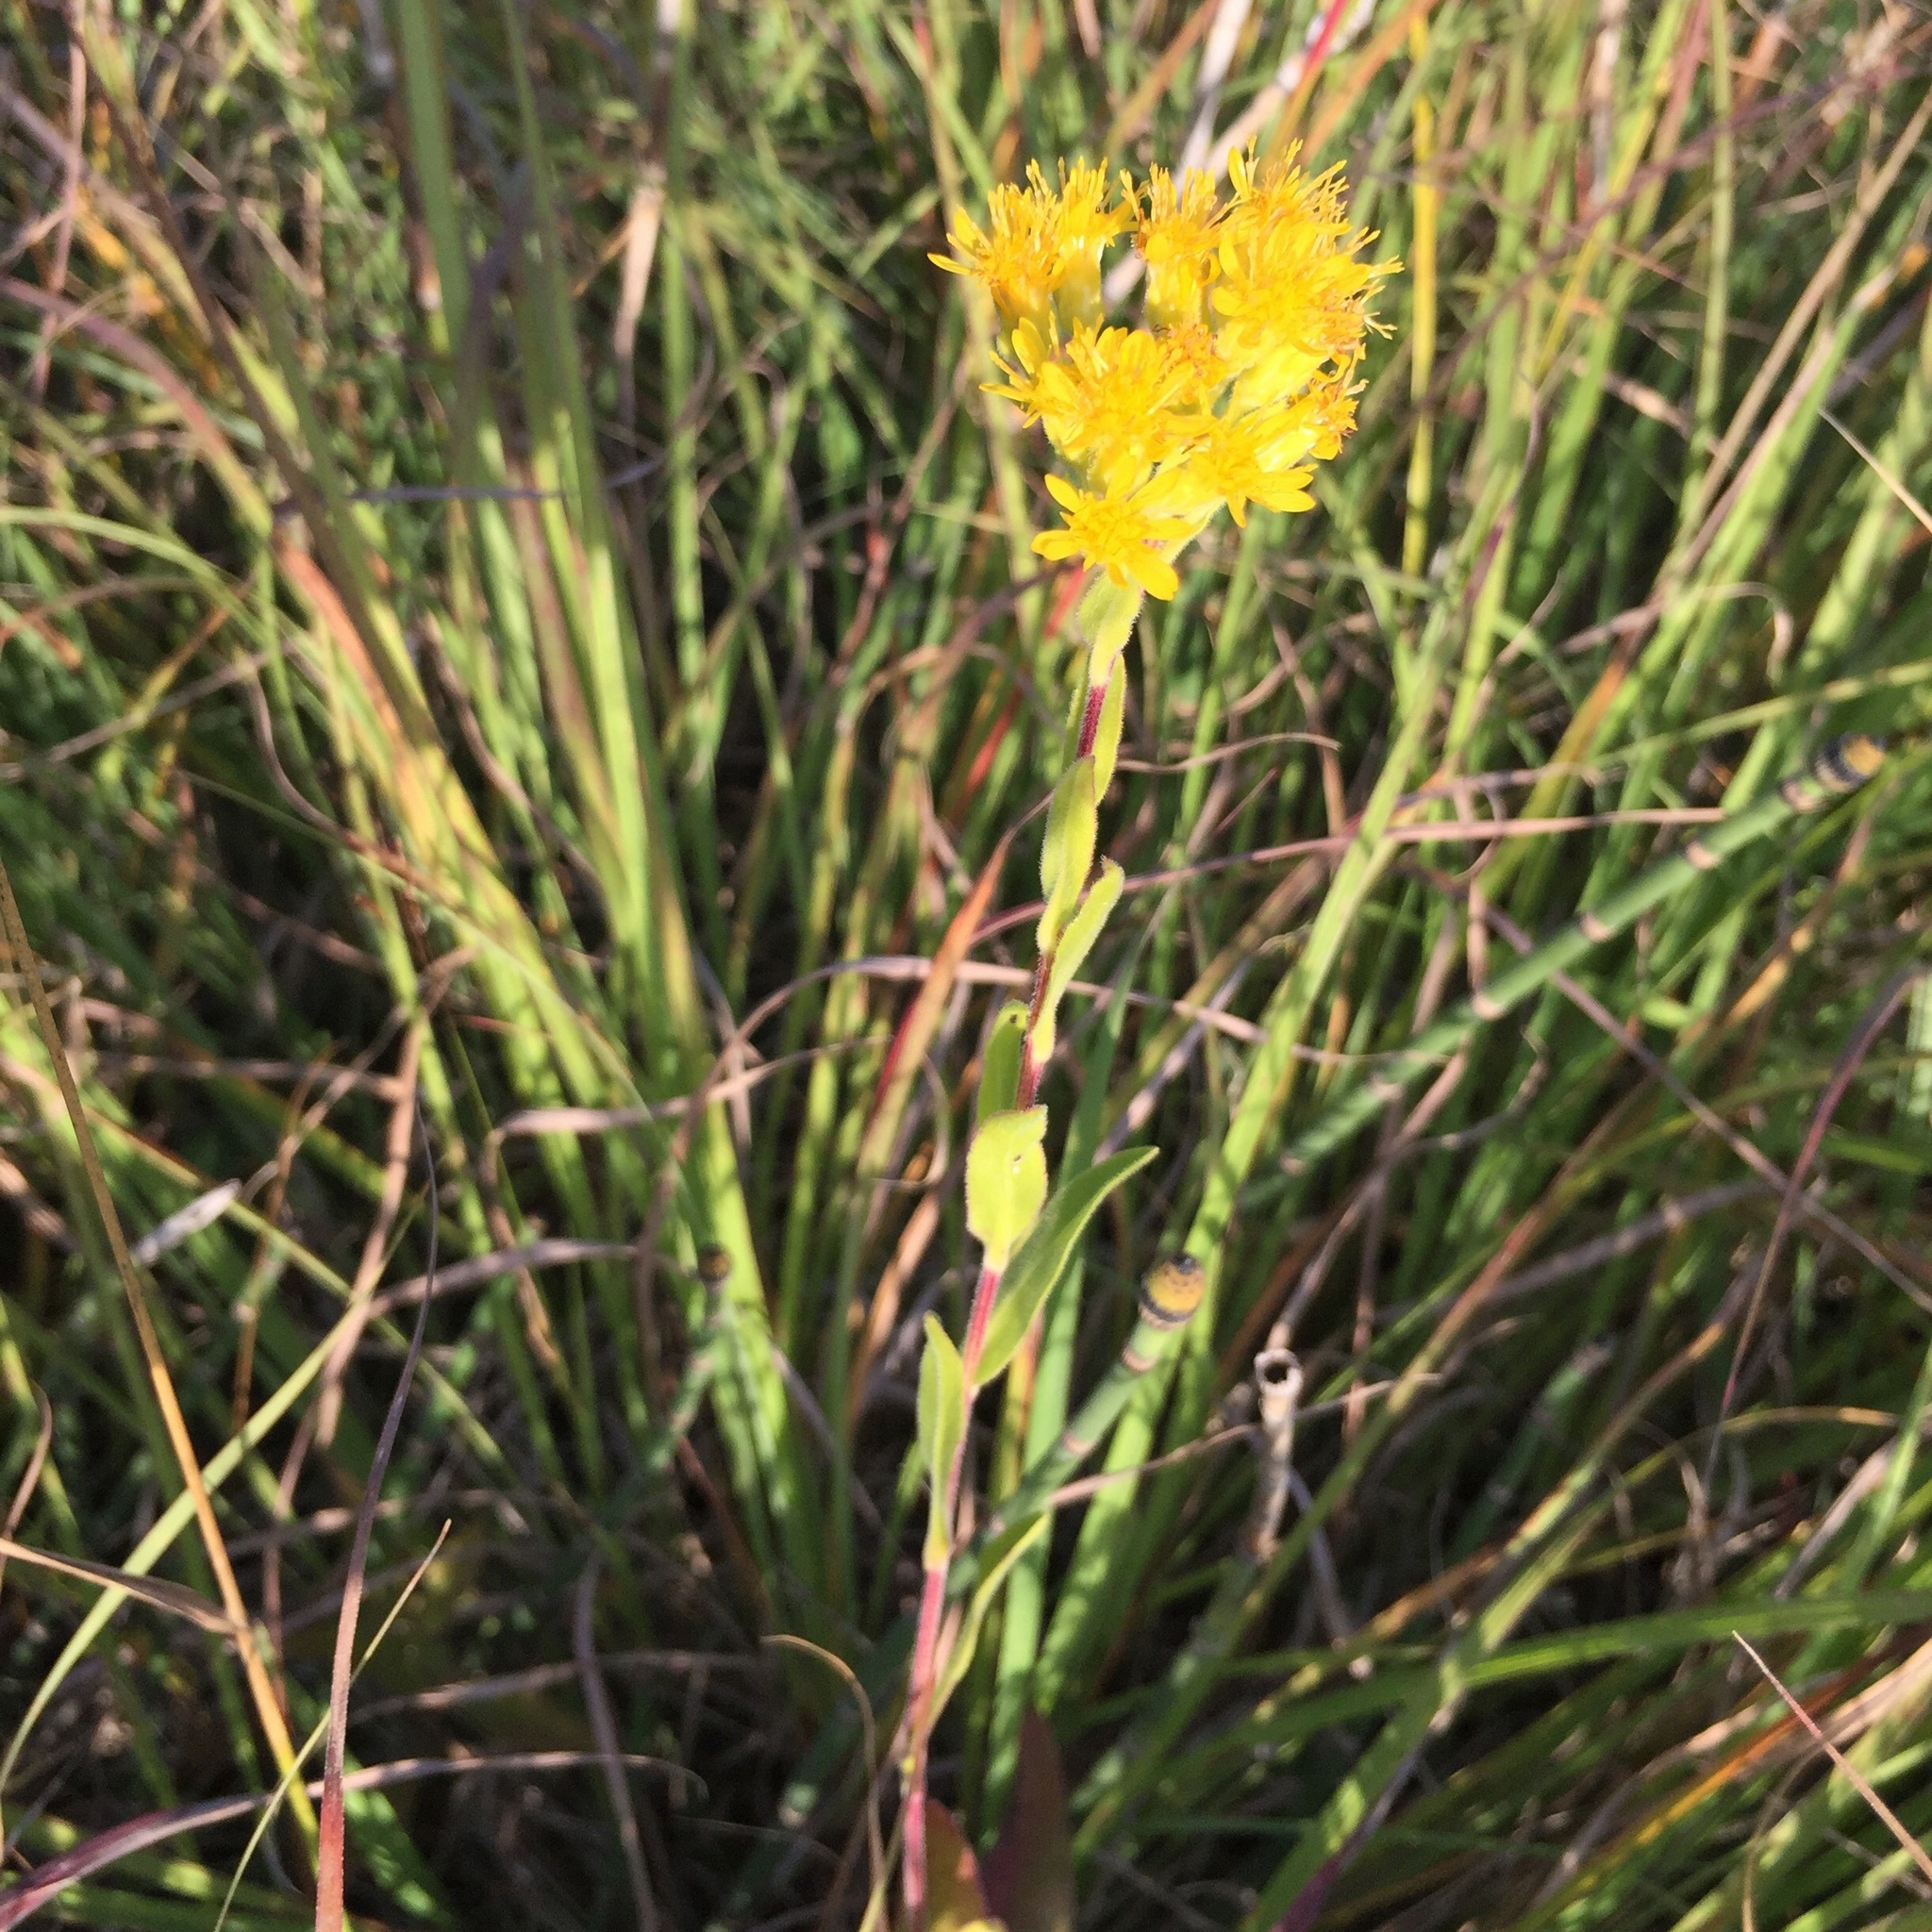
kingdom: Plantae
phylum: Tracheophyta
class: Magnoliopsida
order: Asterales
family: Asteraceae
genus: Solidago
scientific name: Solidago rigida
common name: Rigid goldenrod
